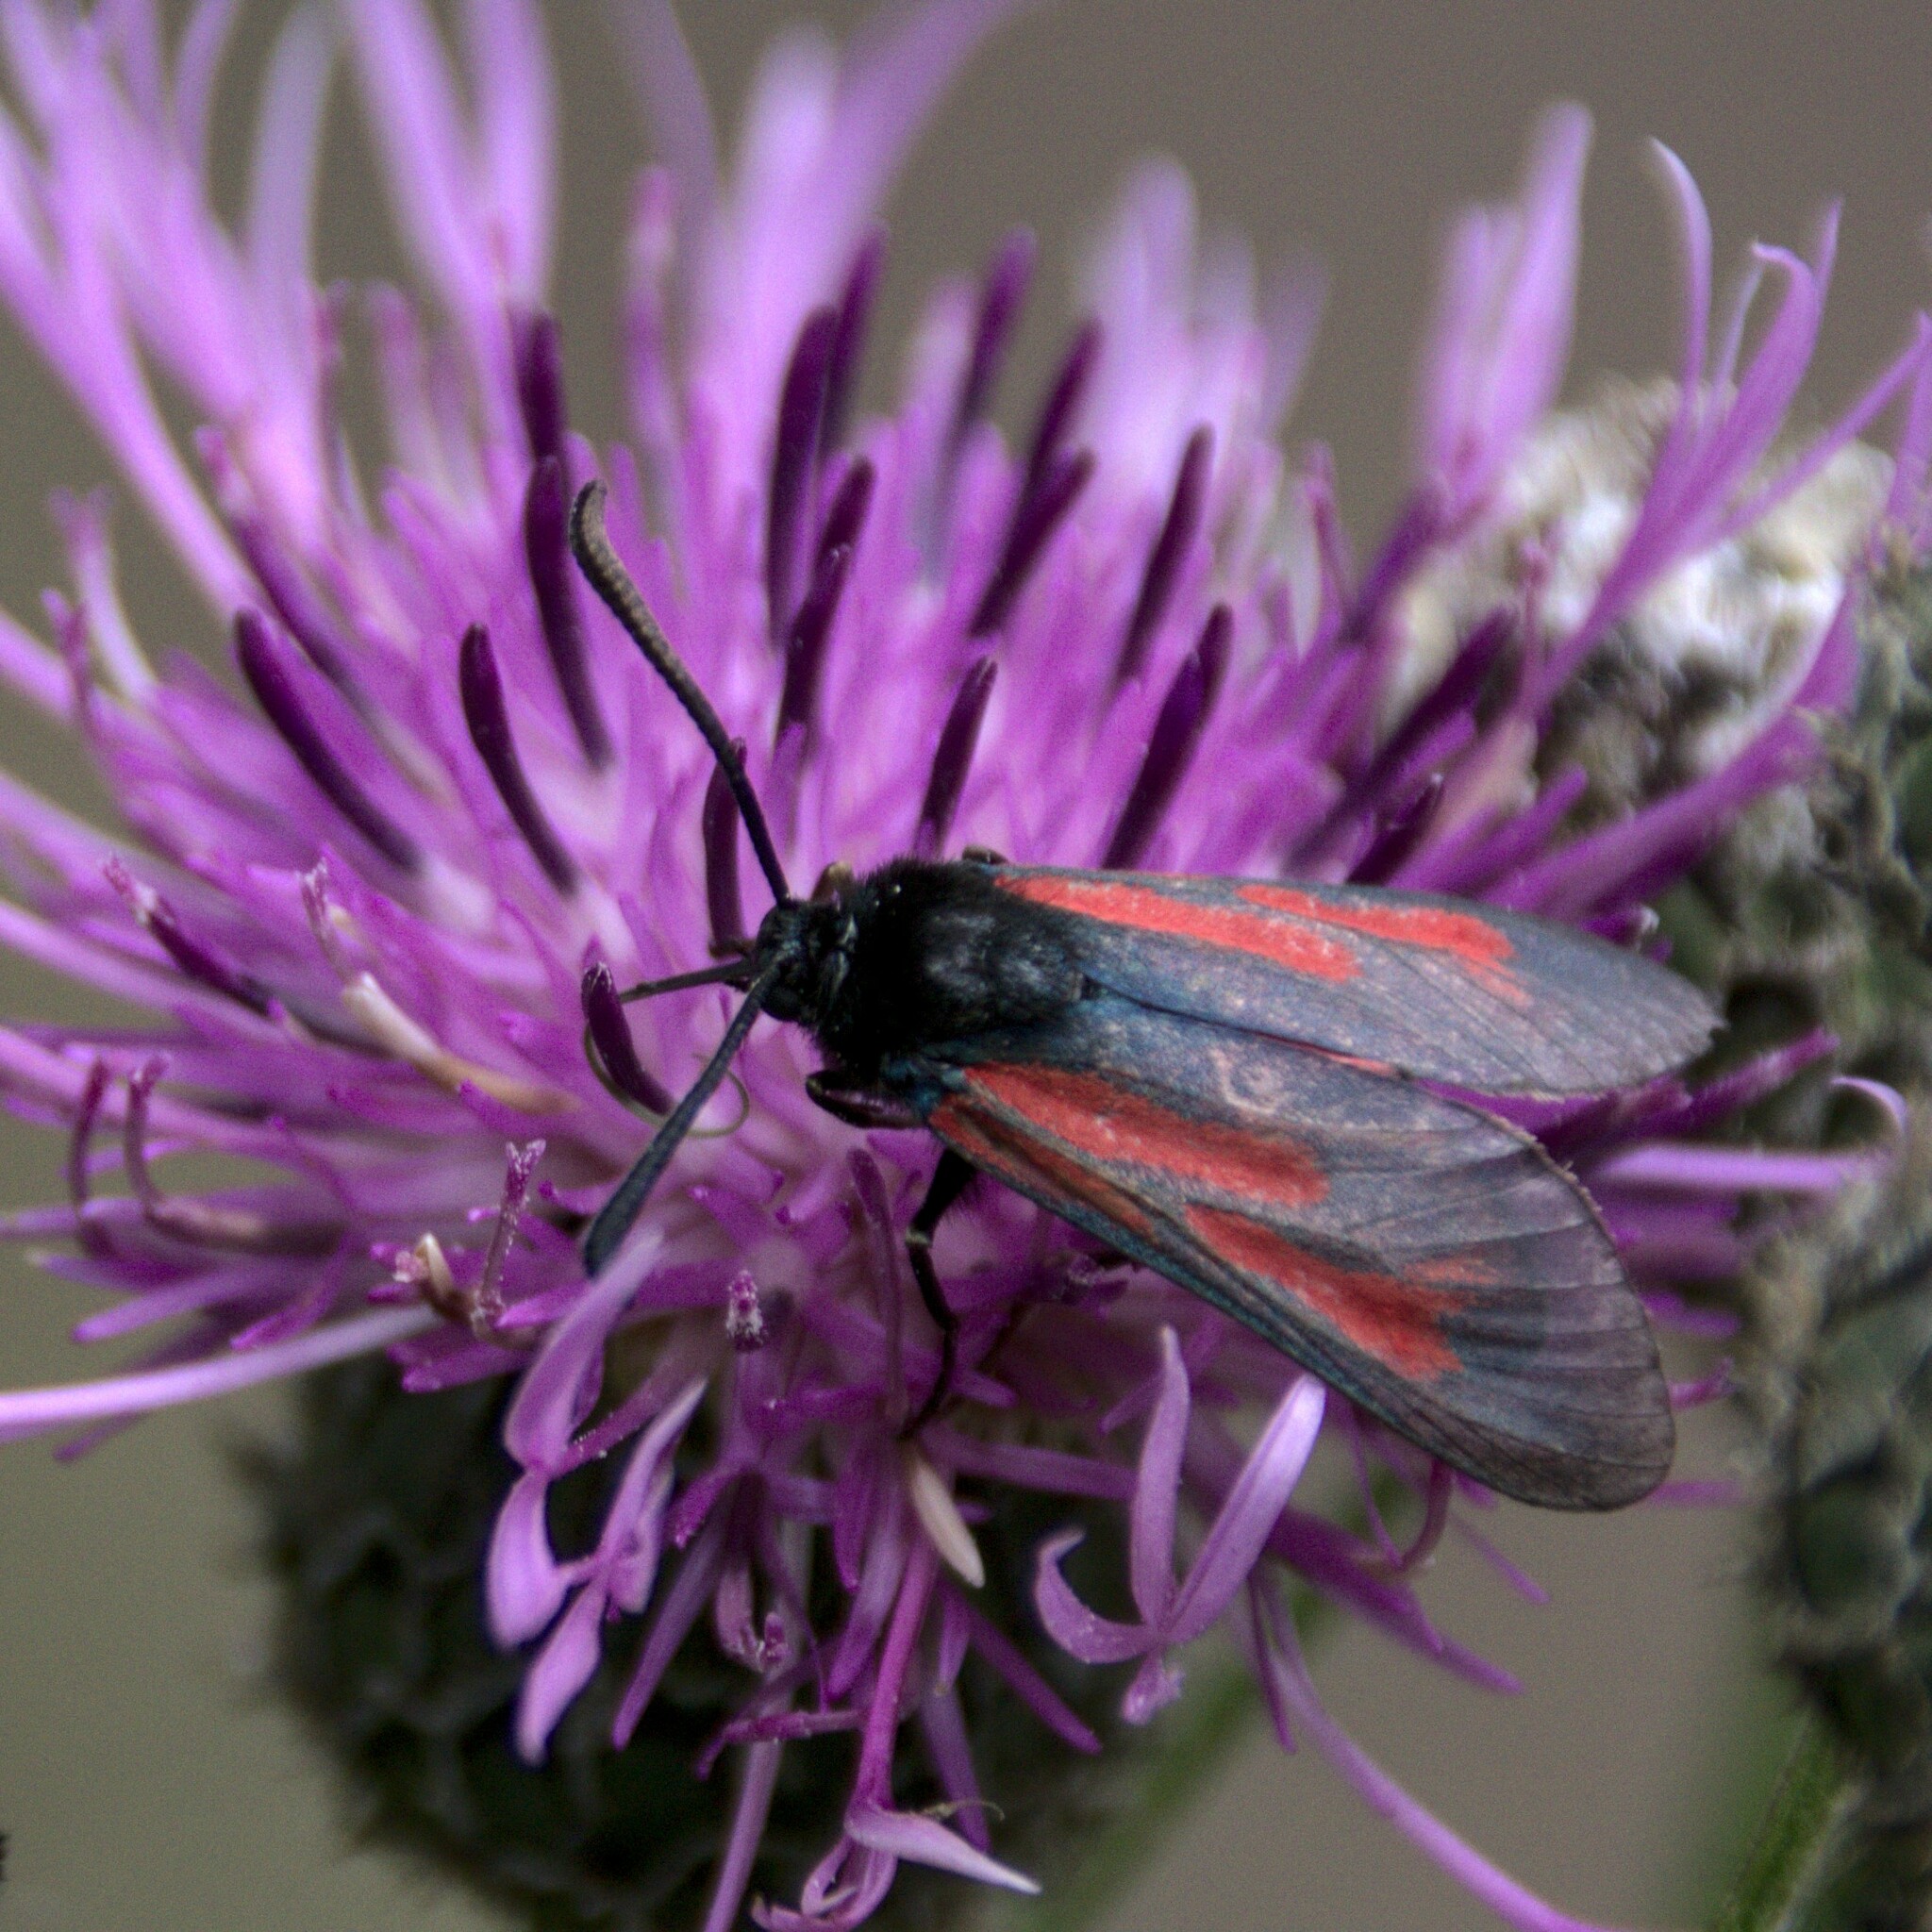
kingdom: Animalia
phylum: Arthropoda
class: Insecta
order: Lepidoptera
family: Zygaenidae
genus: Zygaena
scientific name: Zygaena minos
